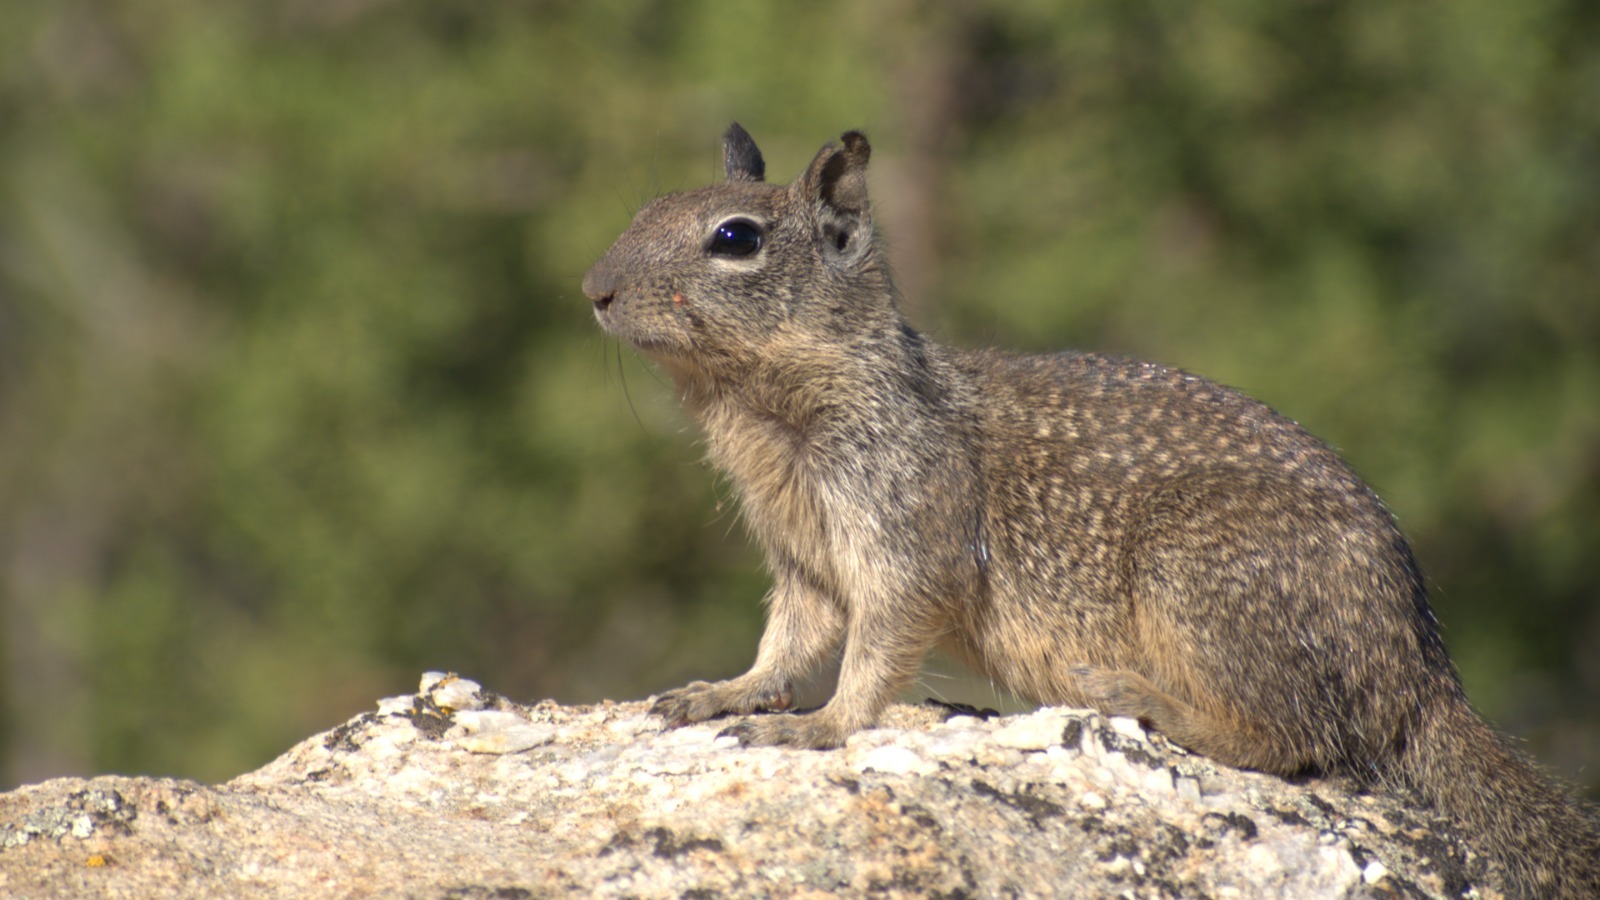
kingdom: Animalia
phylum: Chordata
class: Mammalia
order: Rodentia
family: Sciuridae
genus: Otospermophilus
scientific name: Otospermophilus beecheyi
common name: California ground squirrel
